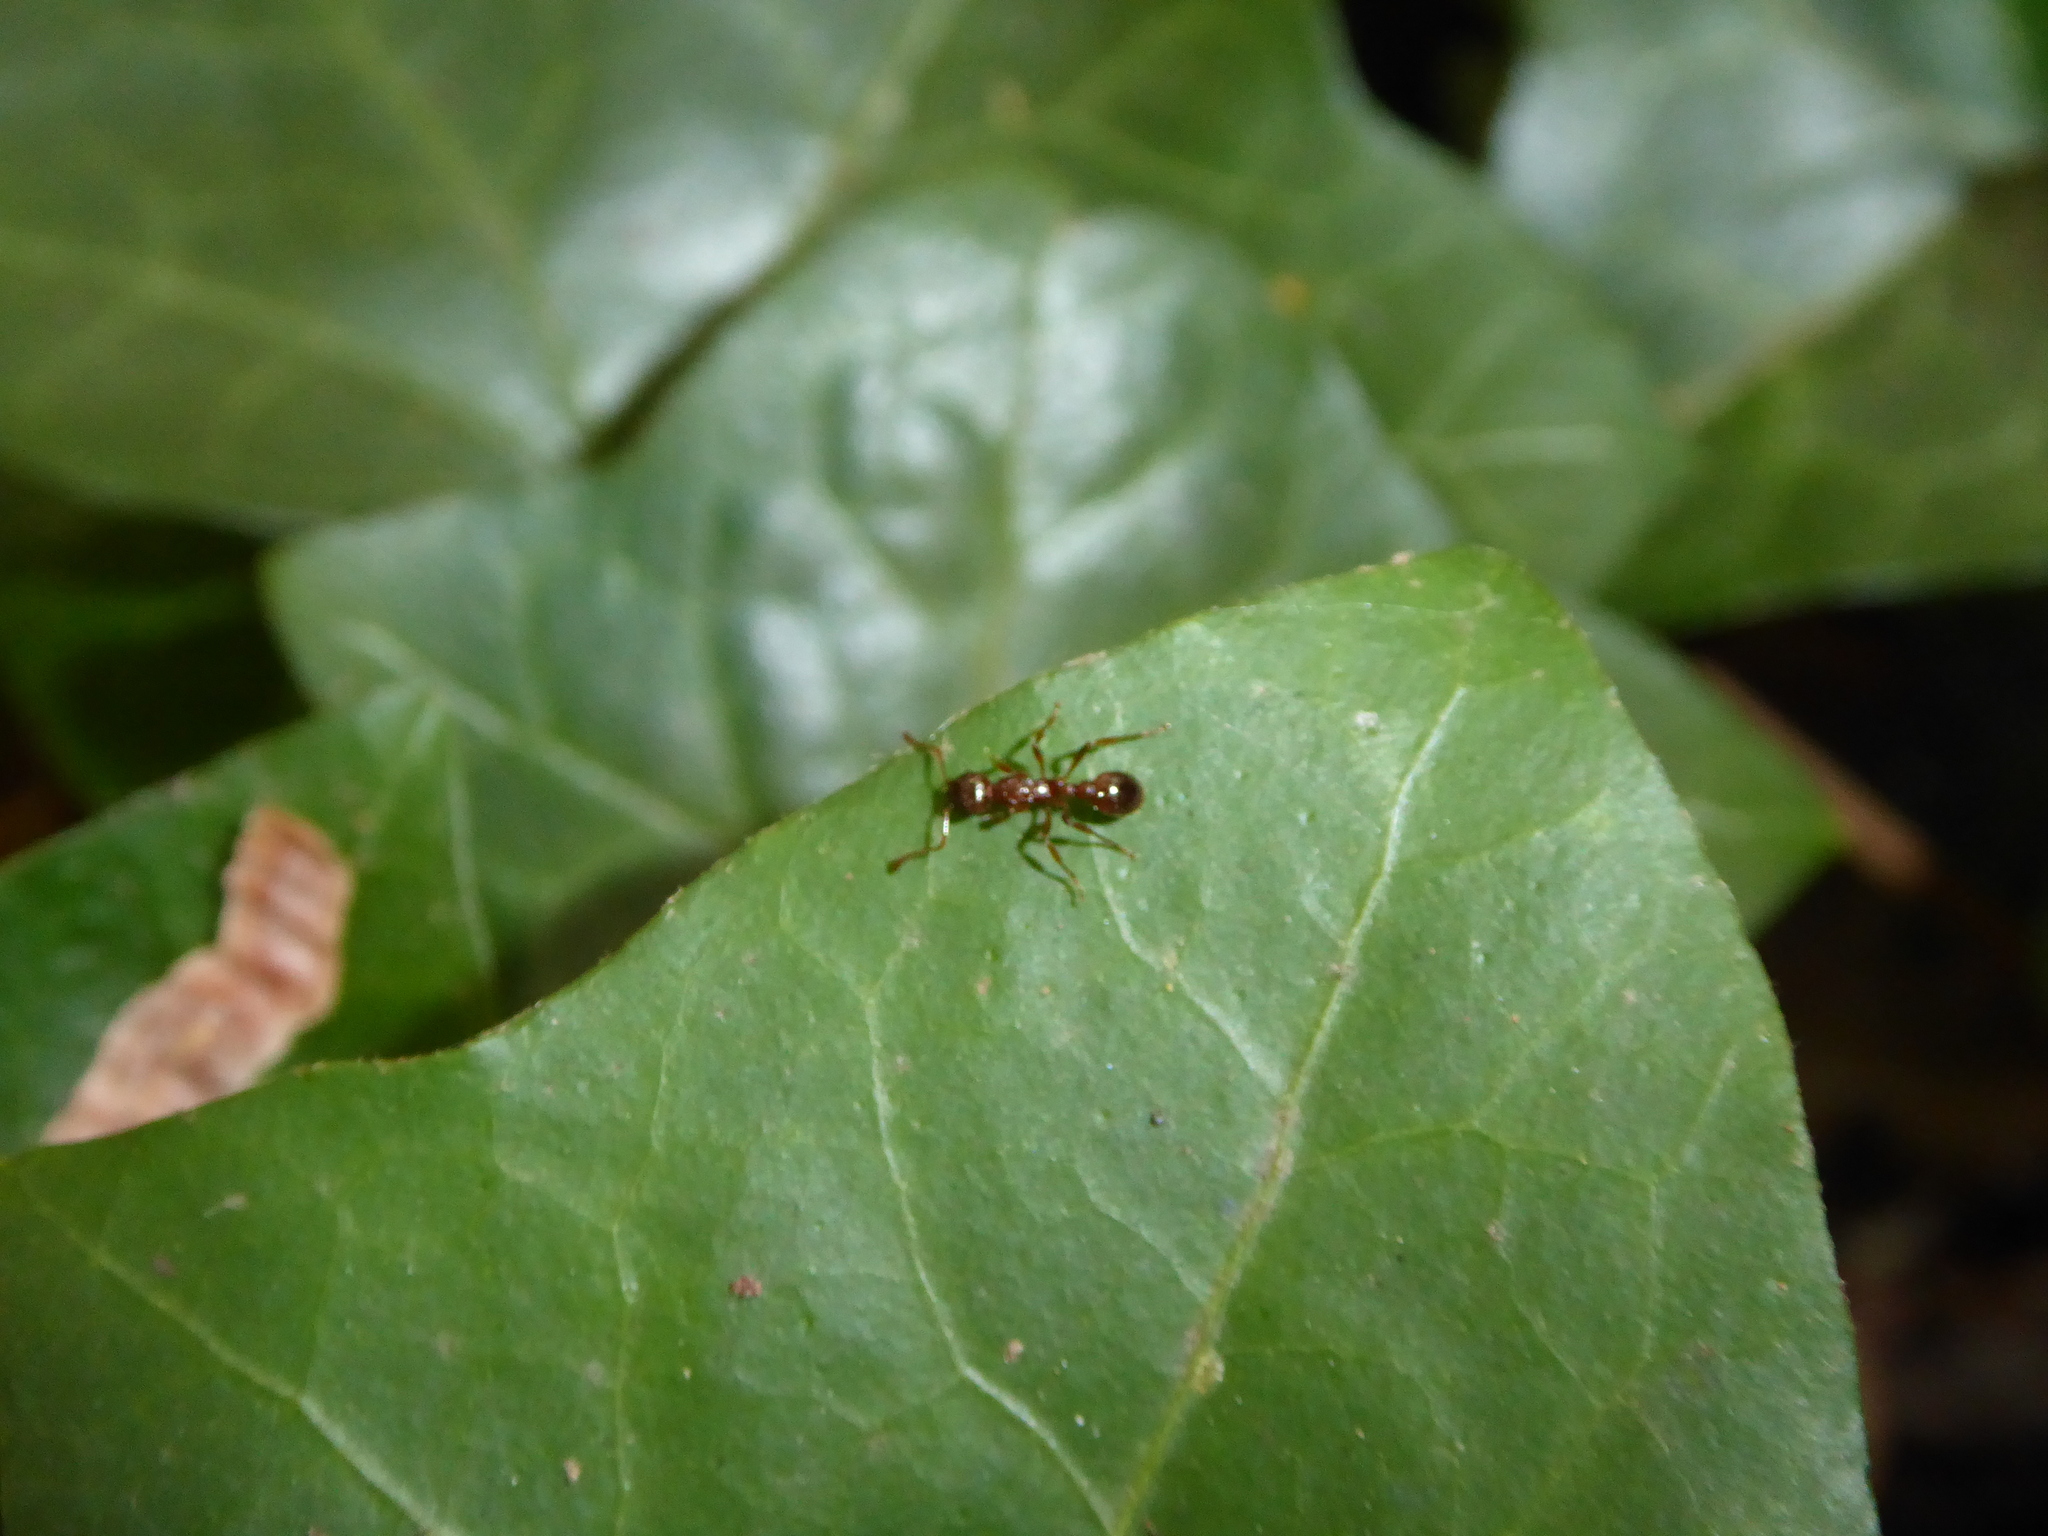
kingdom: Animalia
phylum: Arthropoda
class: Insecta
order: Hymenoptera
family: Formicidae
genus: Myrmica
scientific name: Myrmica
